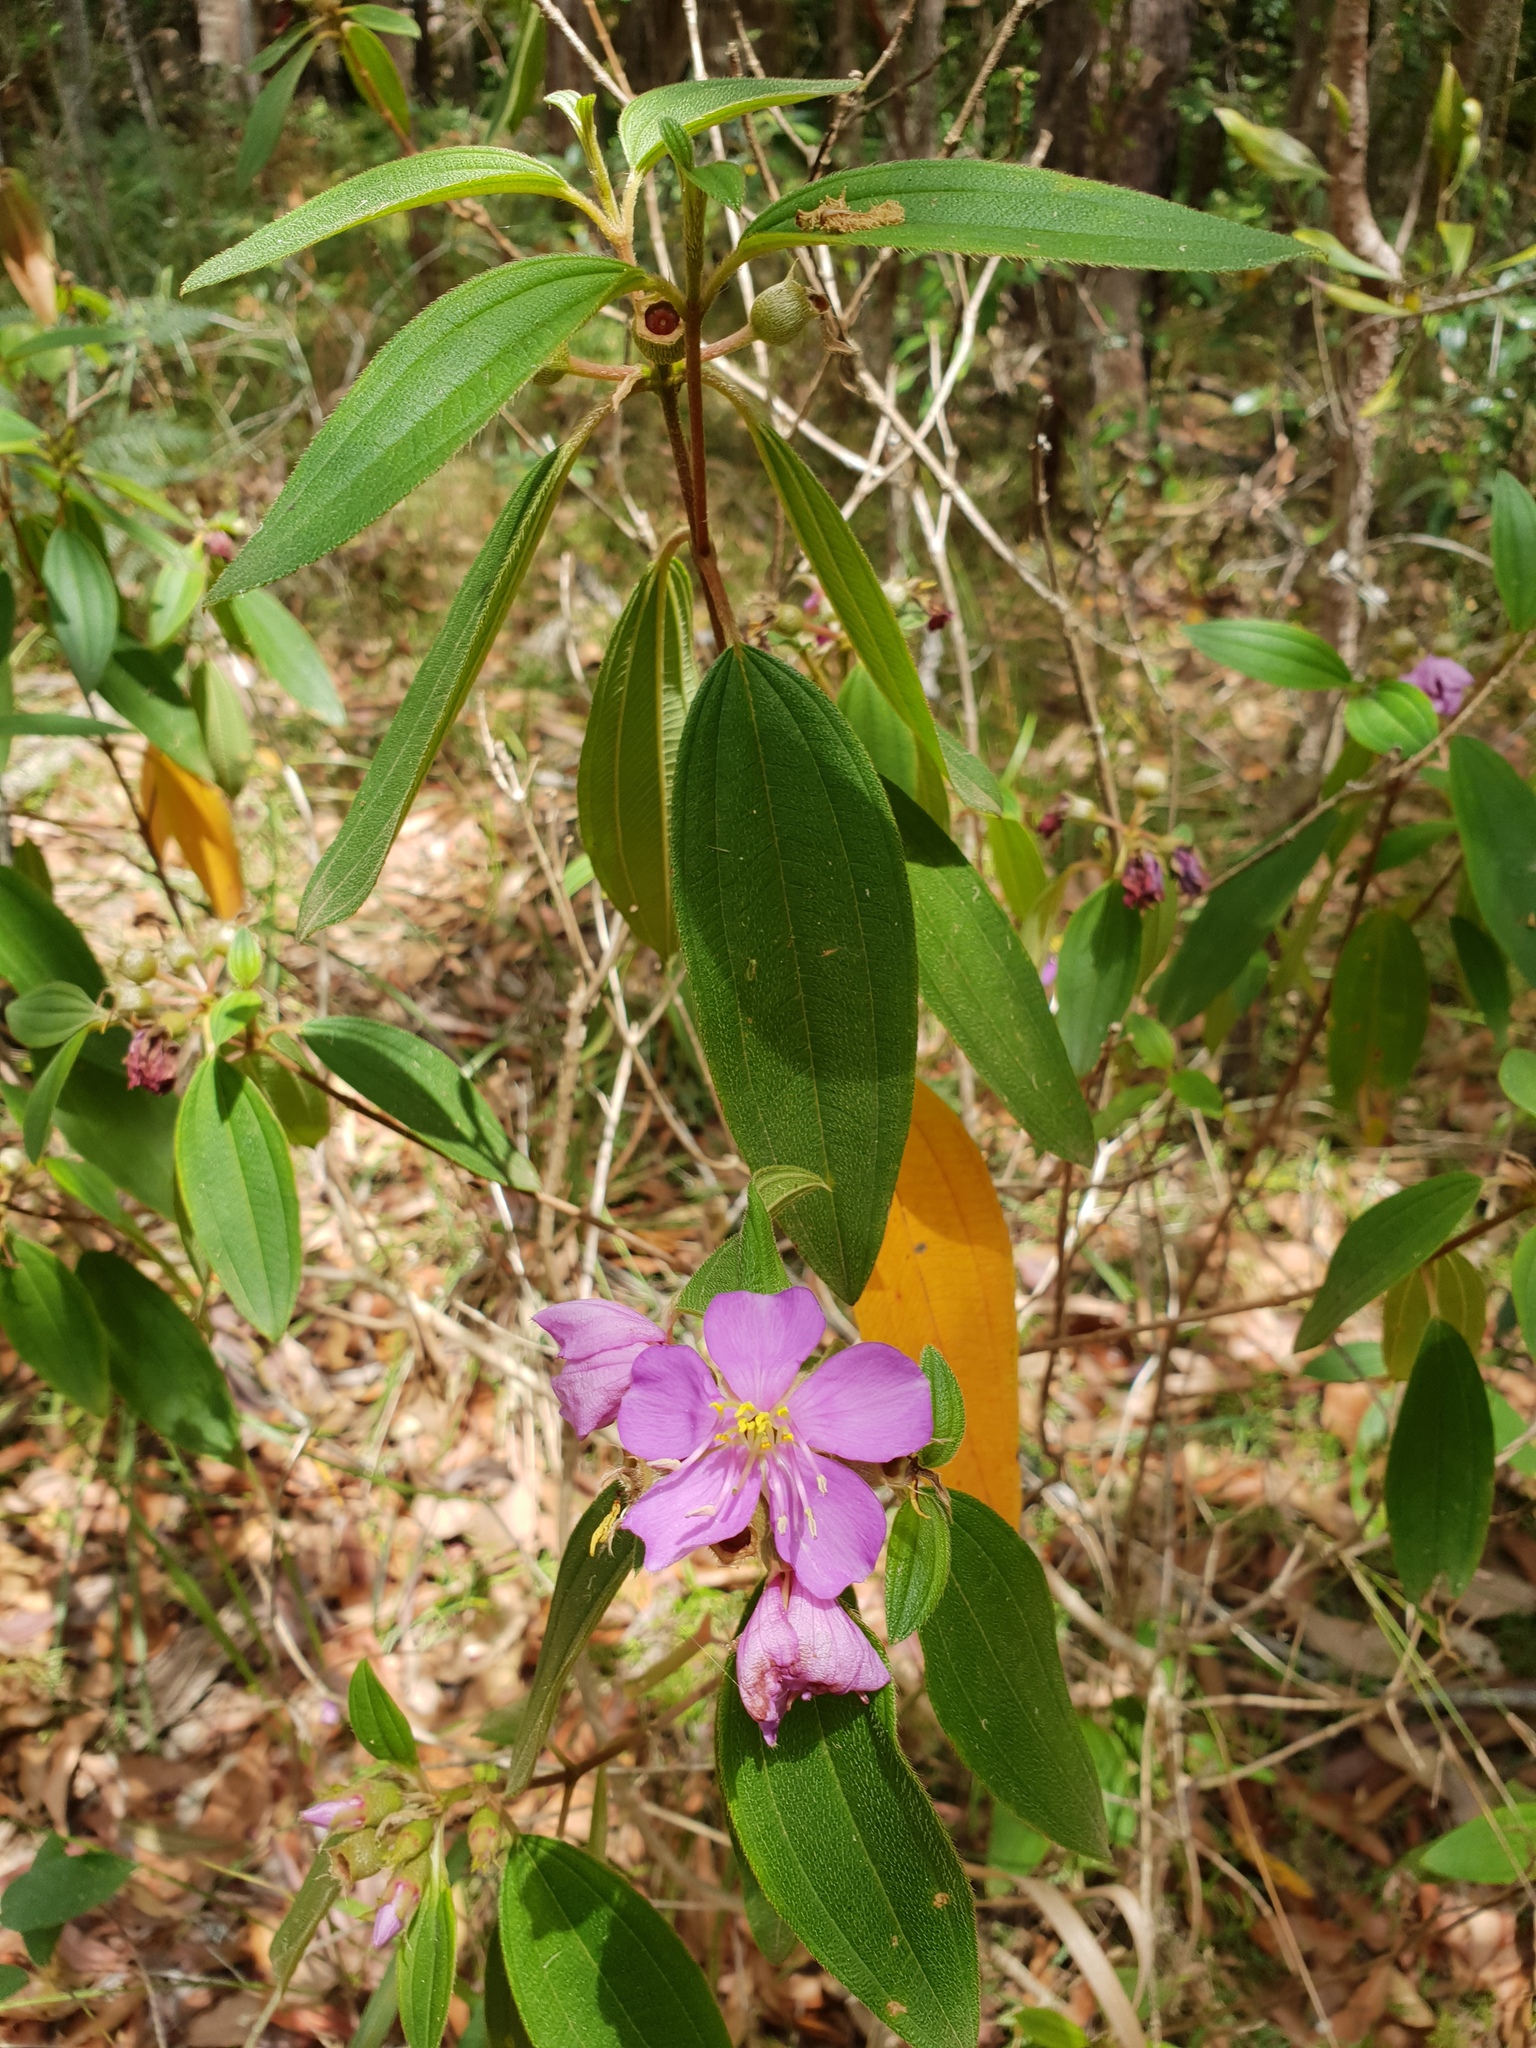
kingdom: Plantae
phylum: Tracheophyta
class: Magnoliopsida
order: Myrtales
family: Melastomataceae
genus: Melastoma
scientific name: Melastoma malabathricum
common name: Indian-rhododendron
